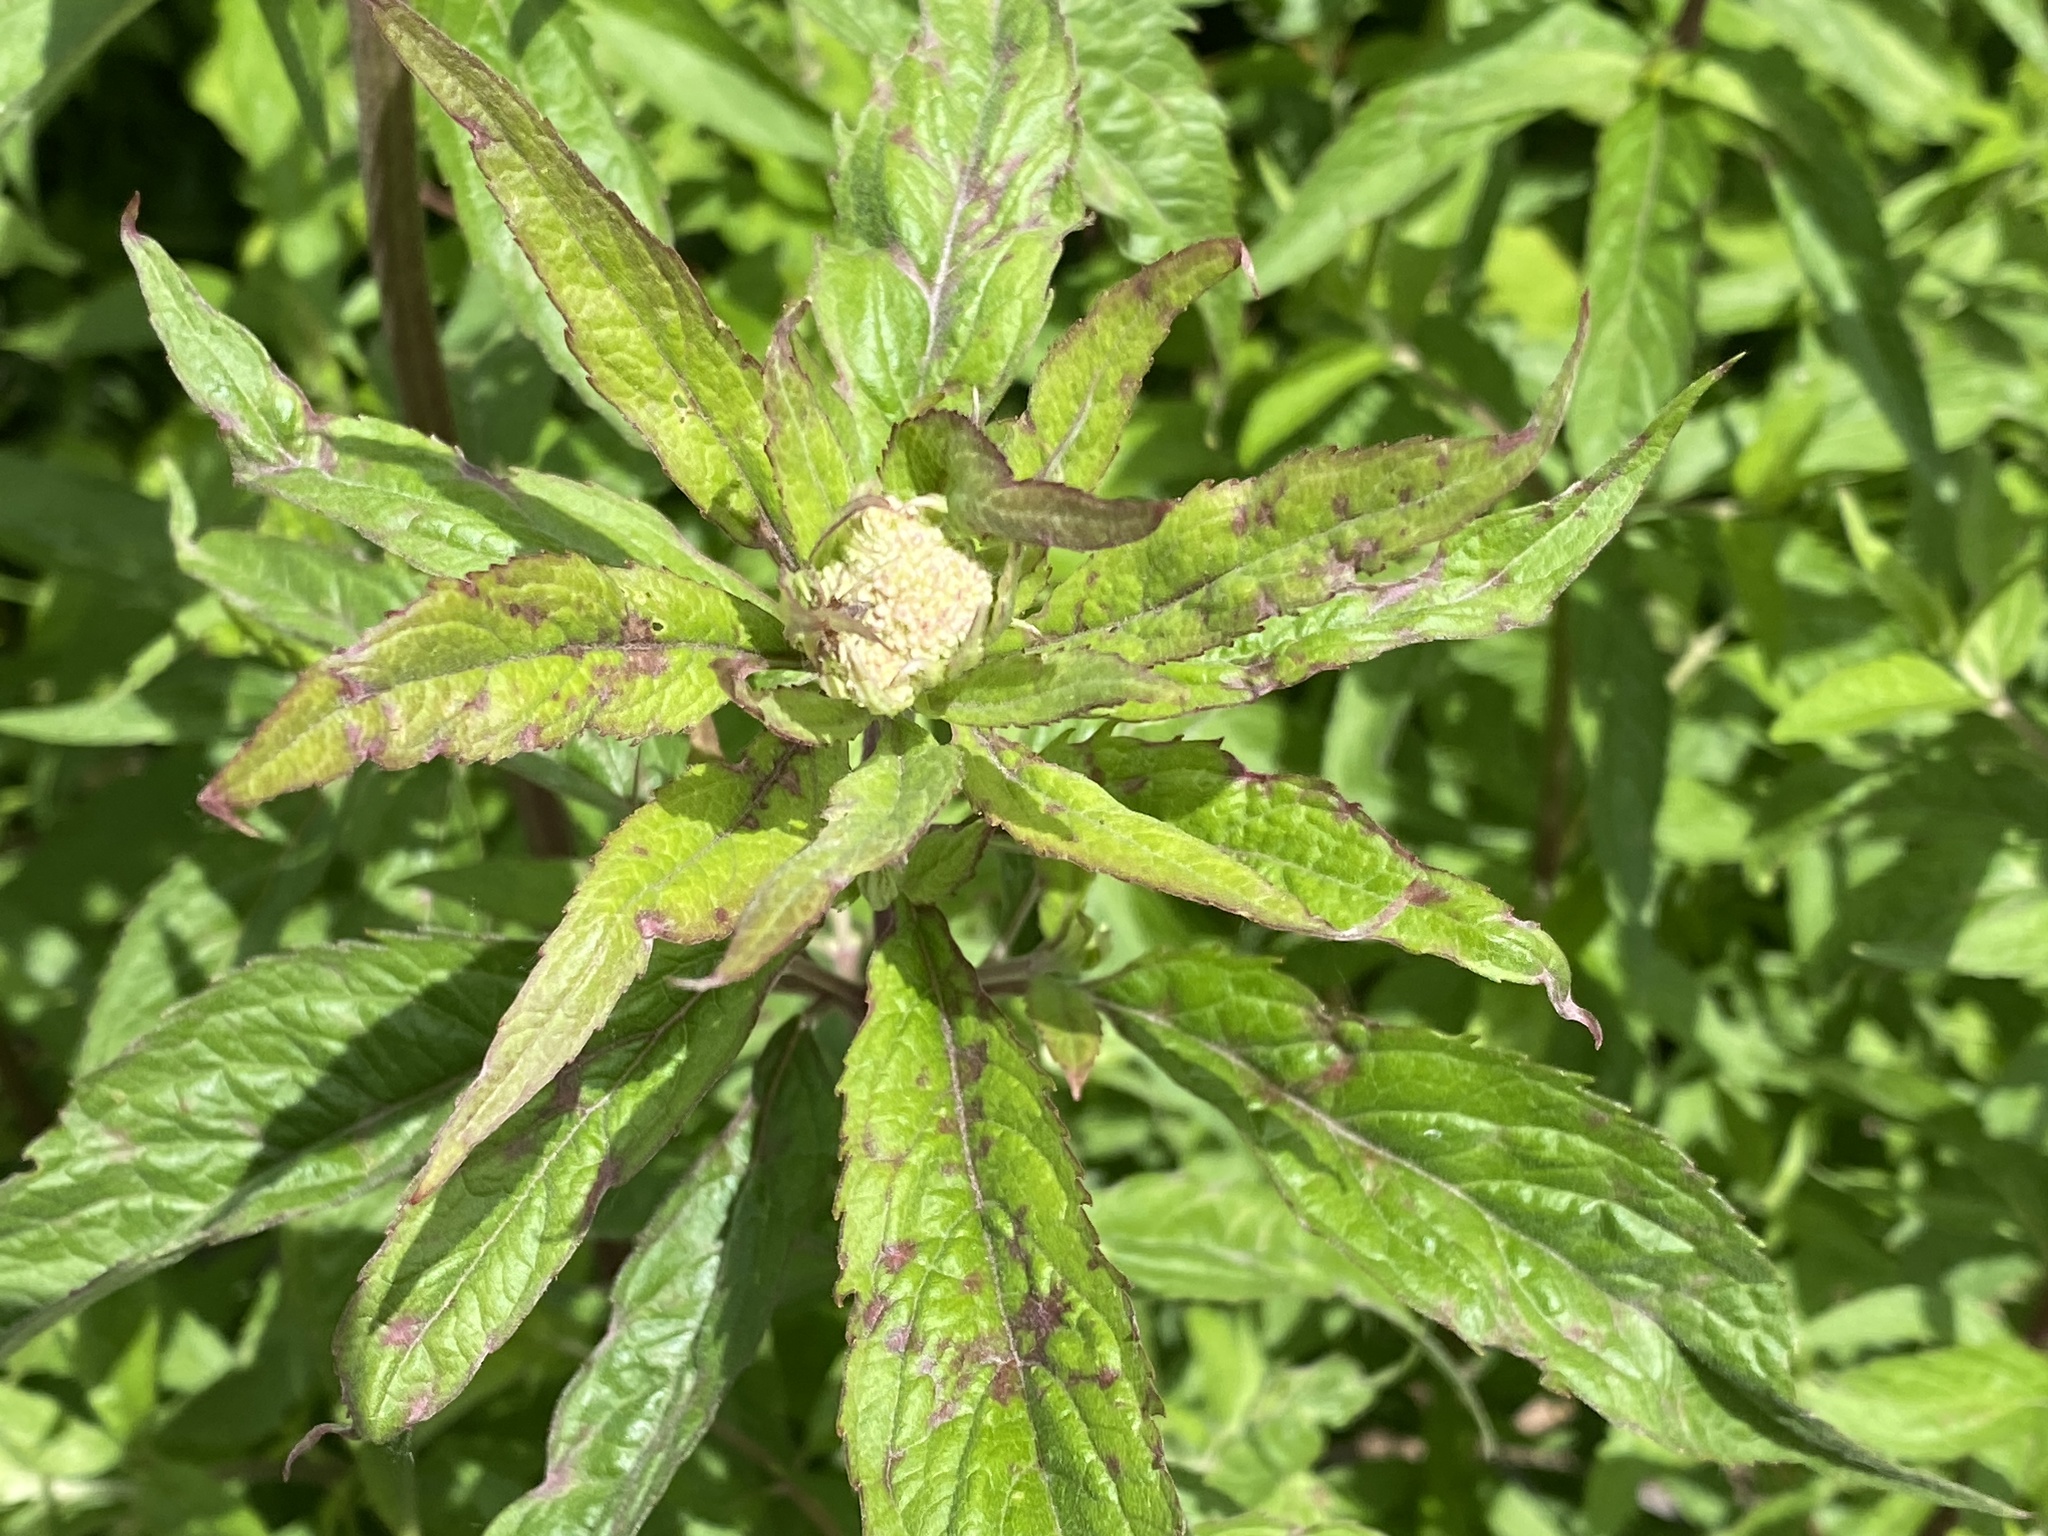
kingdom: Plantae
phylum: Tracheophyta
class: Magnoliopsida
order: Asterales
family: Asteraceae
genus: Eupatorium
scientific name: Eupatorium cannabinum
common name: Hemp-agrimony
